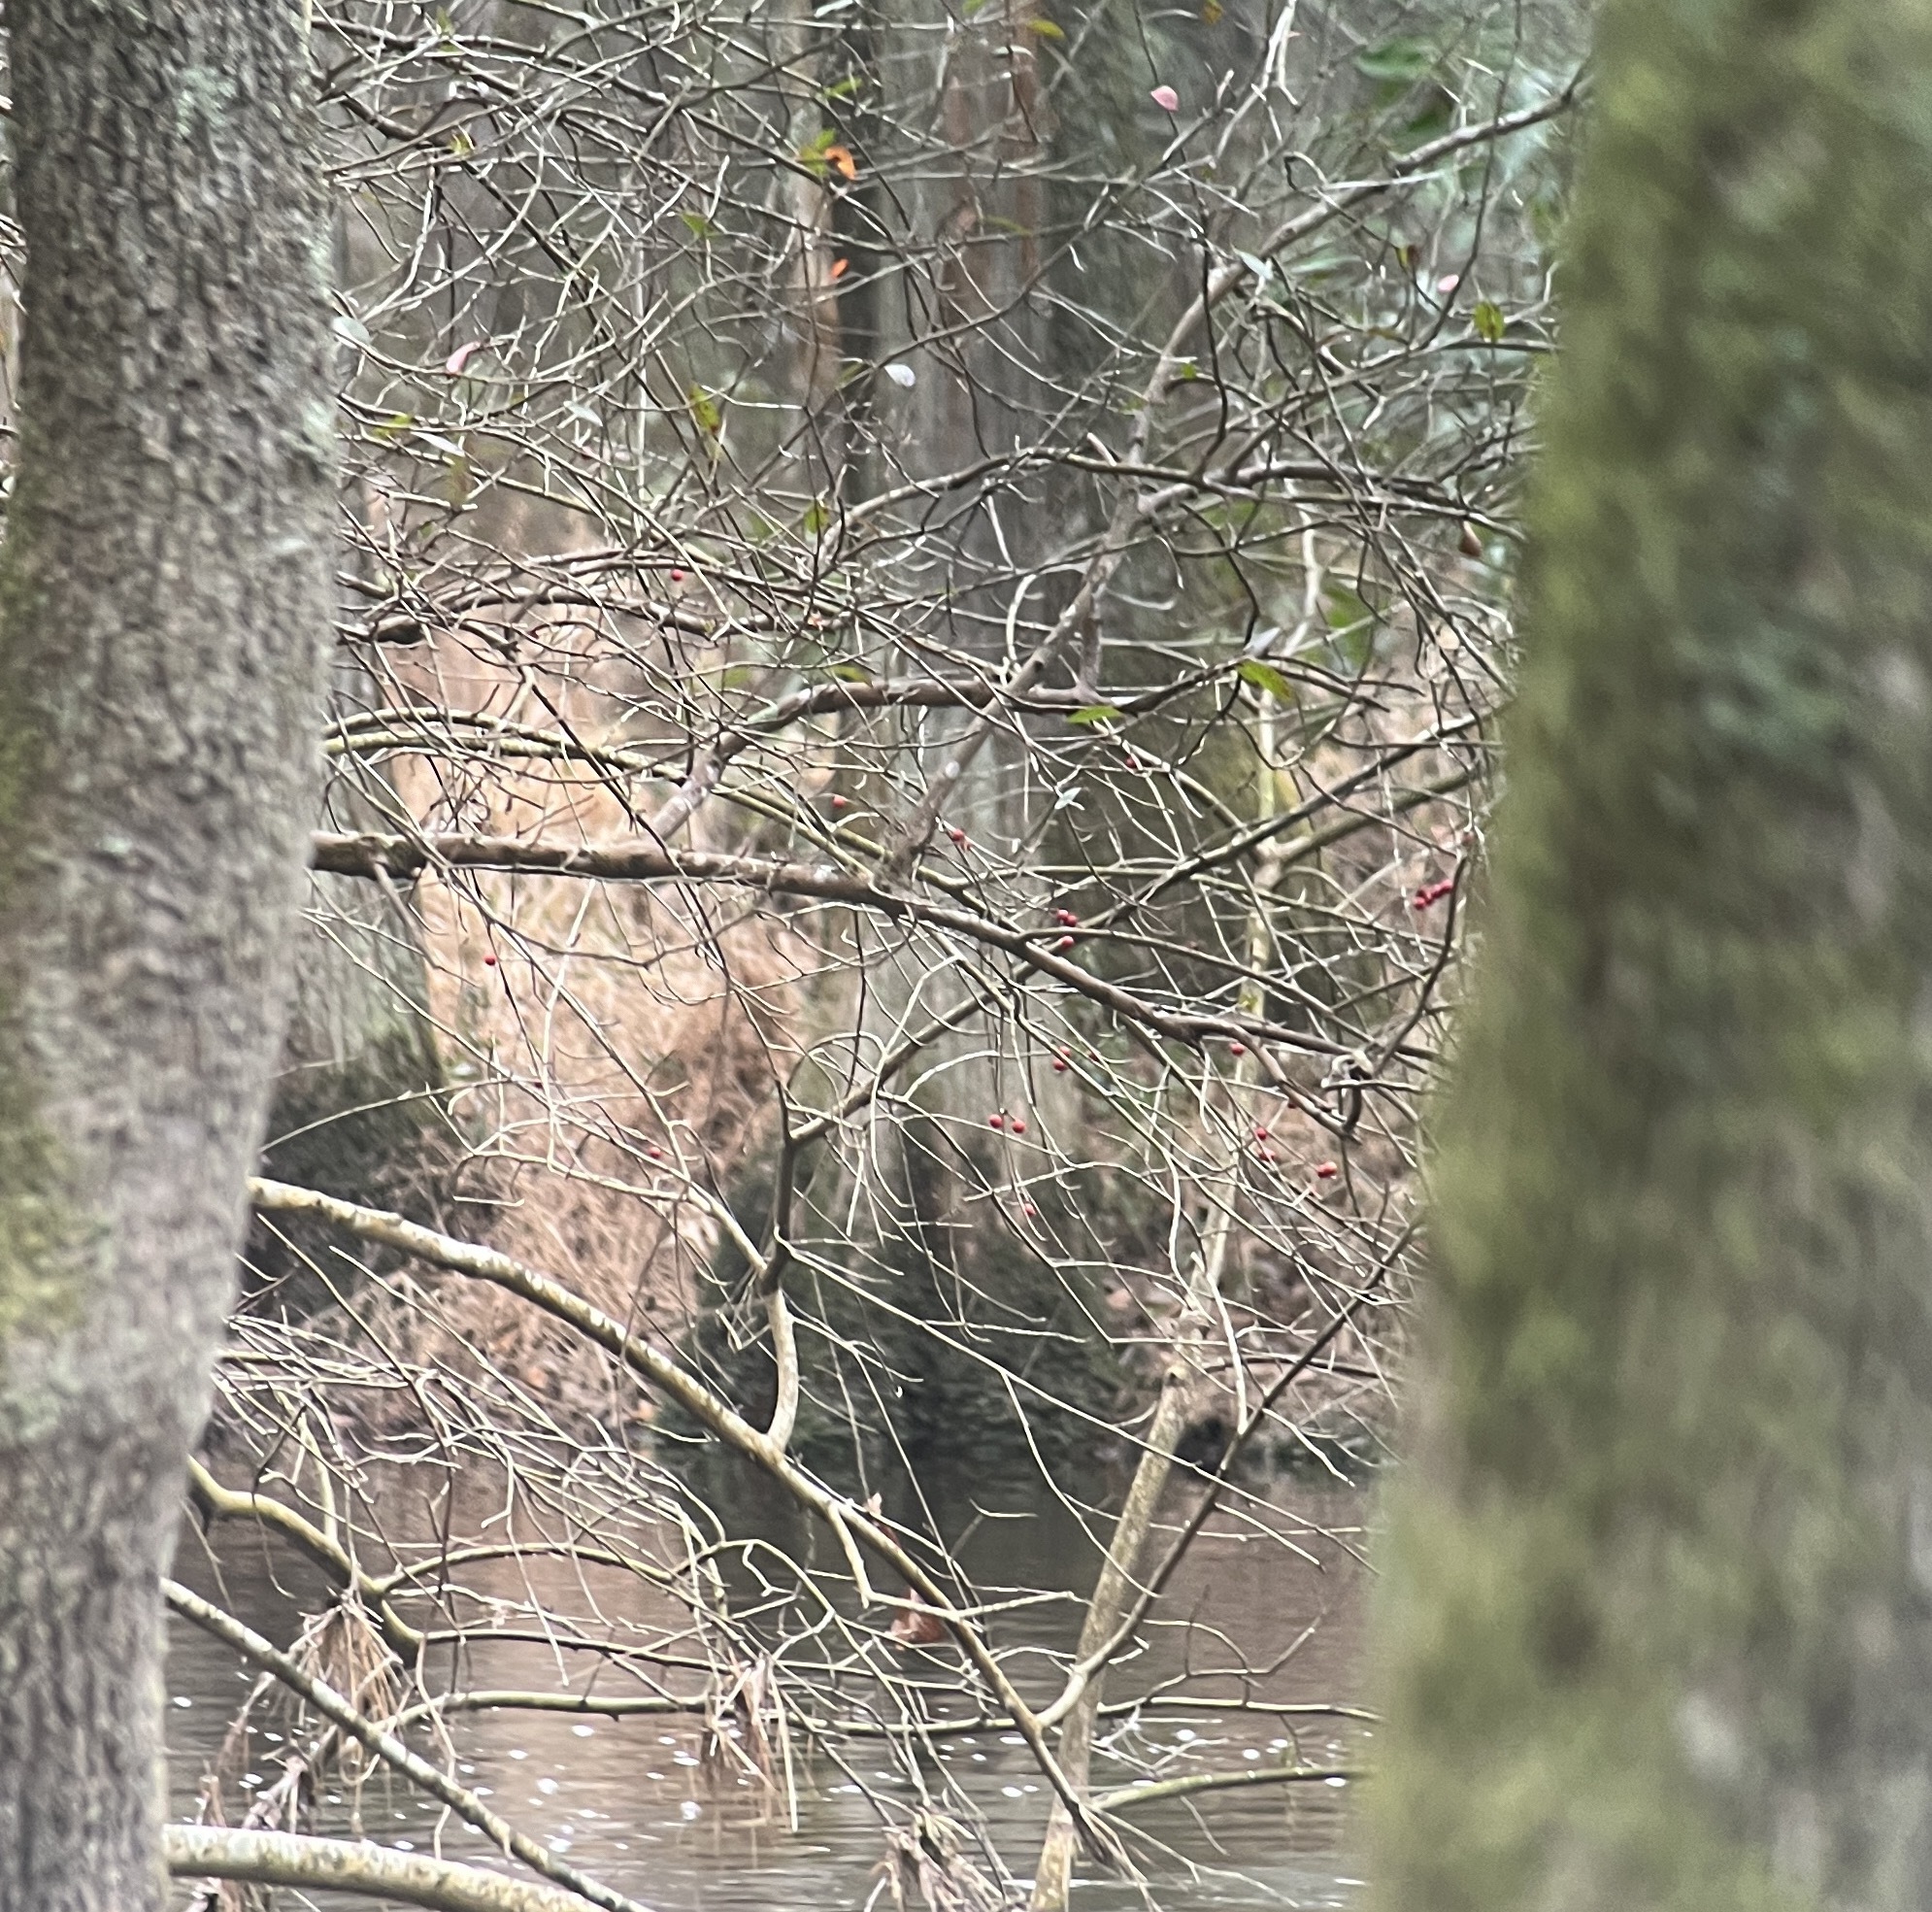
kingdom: Plantae
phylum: Tracheophyta
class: Magnoliopsida
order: Aquifoliales
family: Aquifoliaceae
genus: Ilex
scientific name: Ilex amelanchier
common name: Sarvis holly
